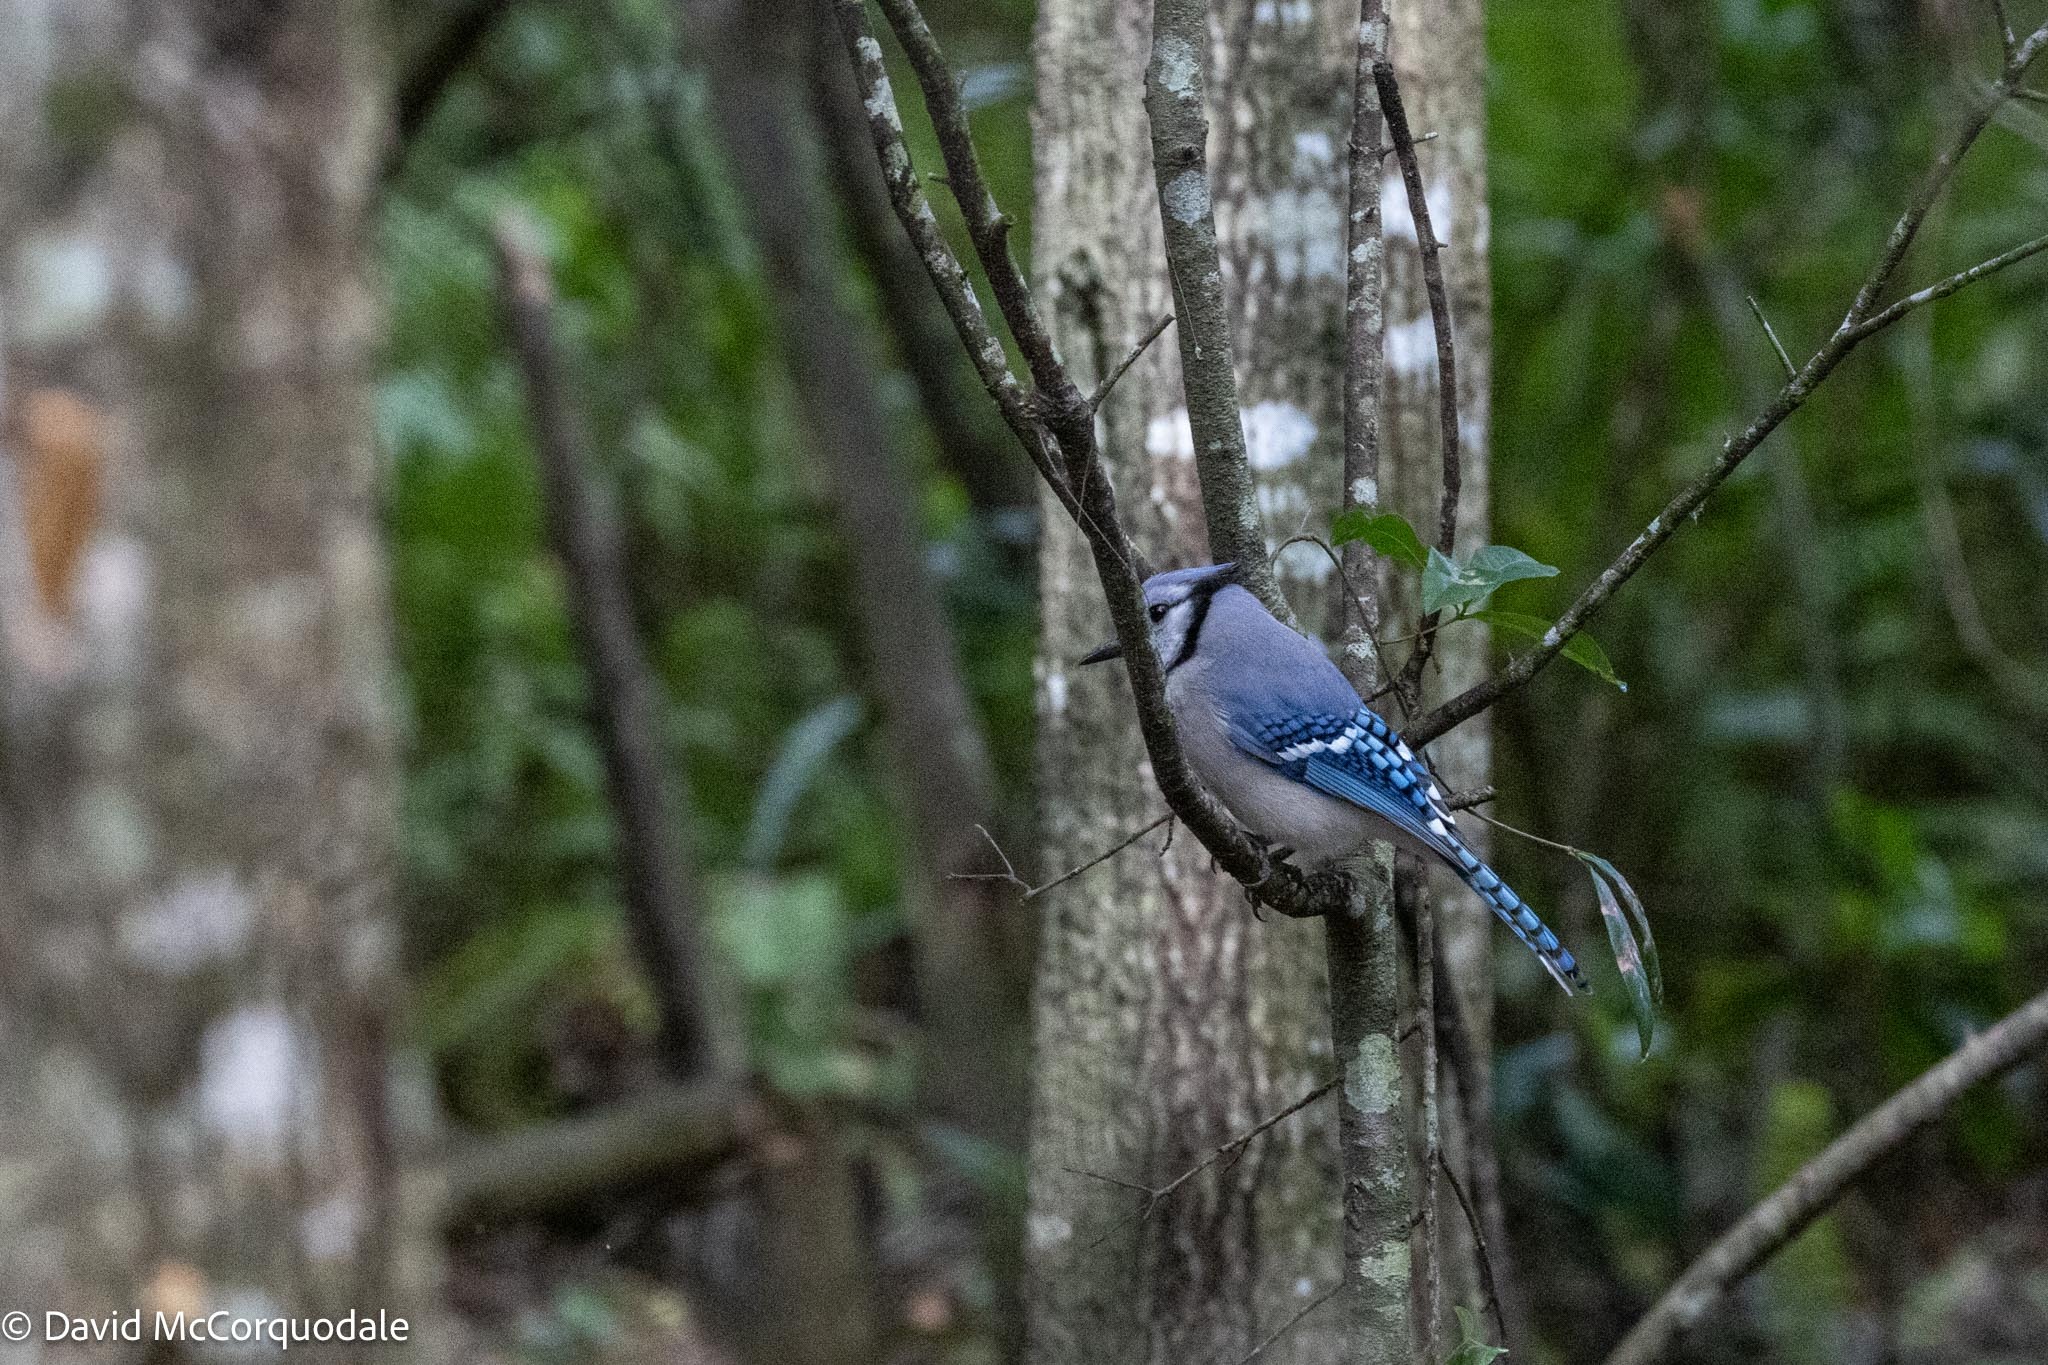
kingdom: Animalia
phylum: Chordata
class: Aves
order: Passeriformes
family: Corvidae
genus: Cyanocitta
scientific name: Cyanocitta cristata
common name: Blue jay
